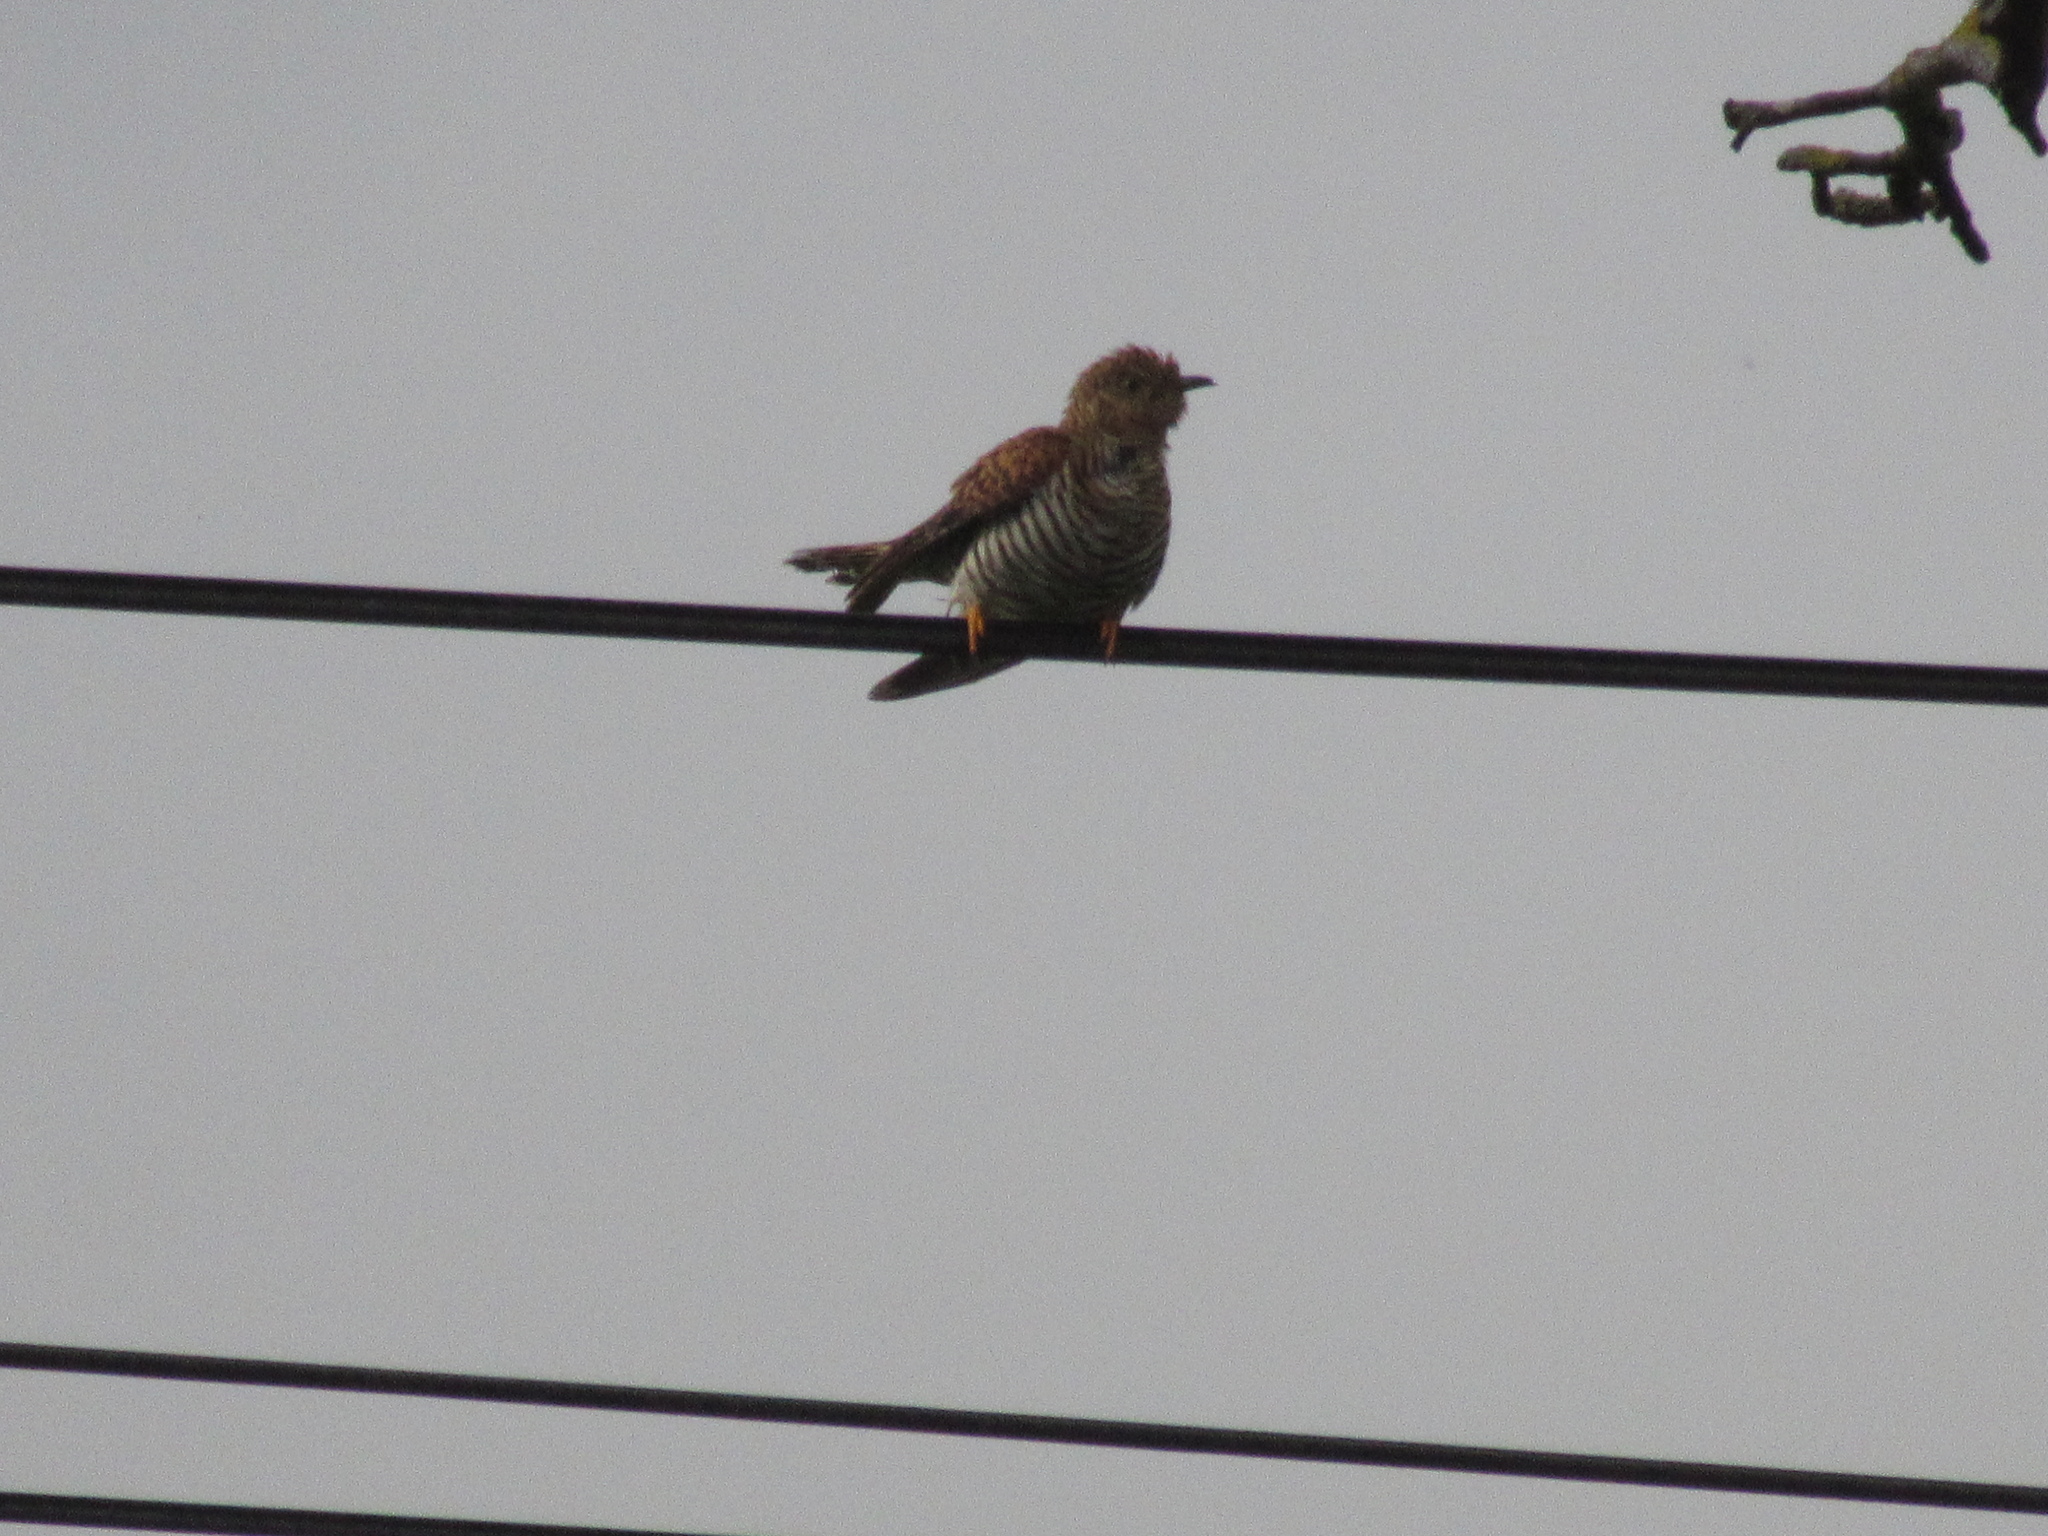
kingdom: Animalia
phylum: Chordata
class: Aves
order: Cuculiformes
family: Cuculidae
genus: Cuculus
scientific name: Cuculus canorus
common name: Common cuckoo
